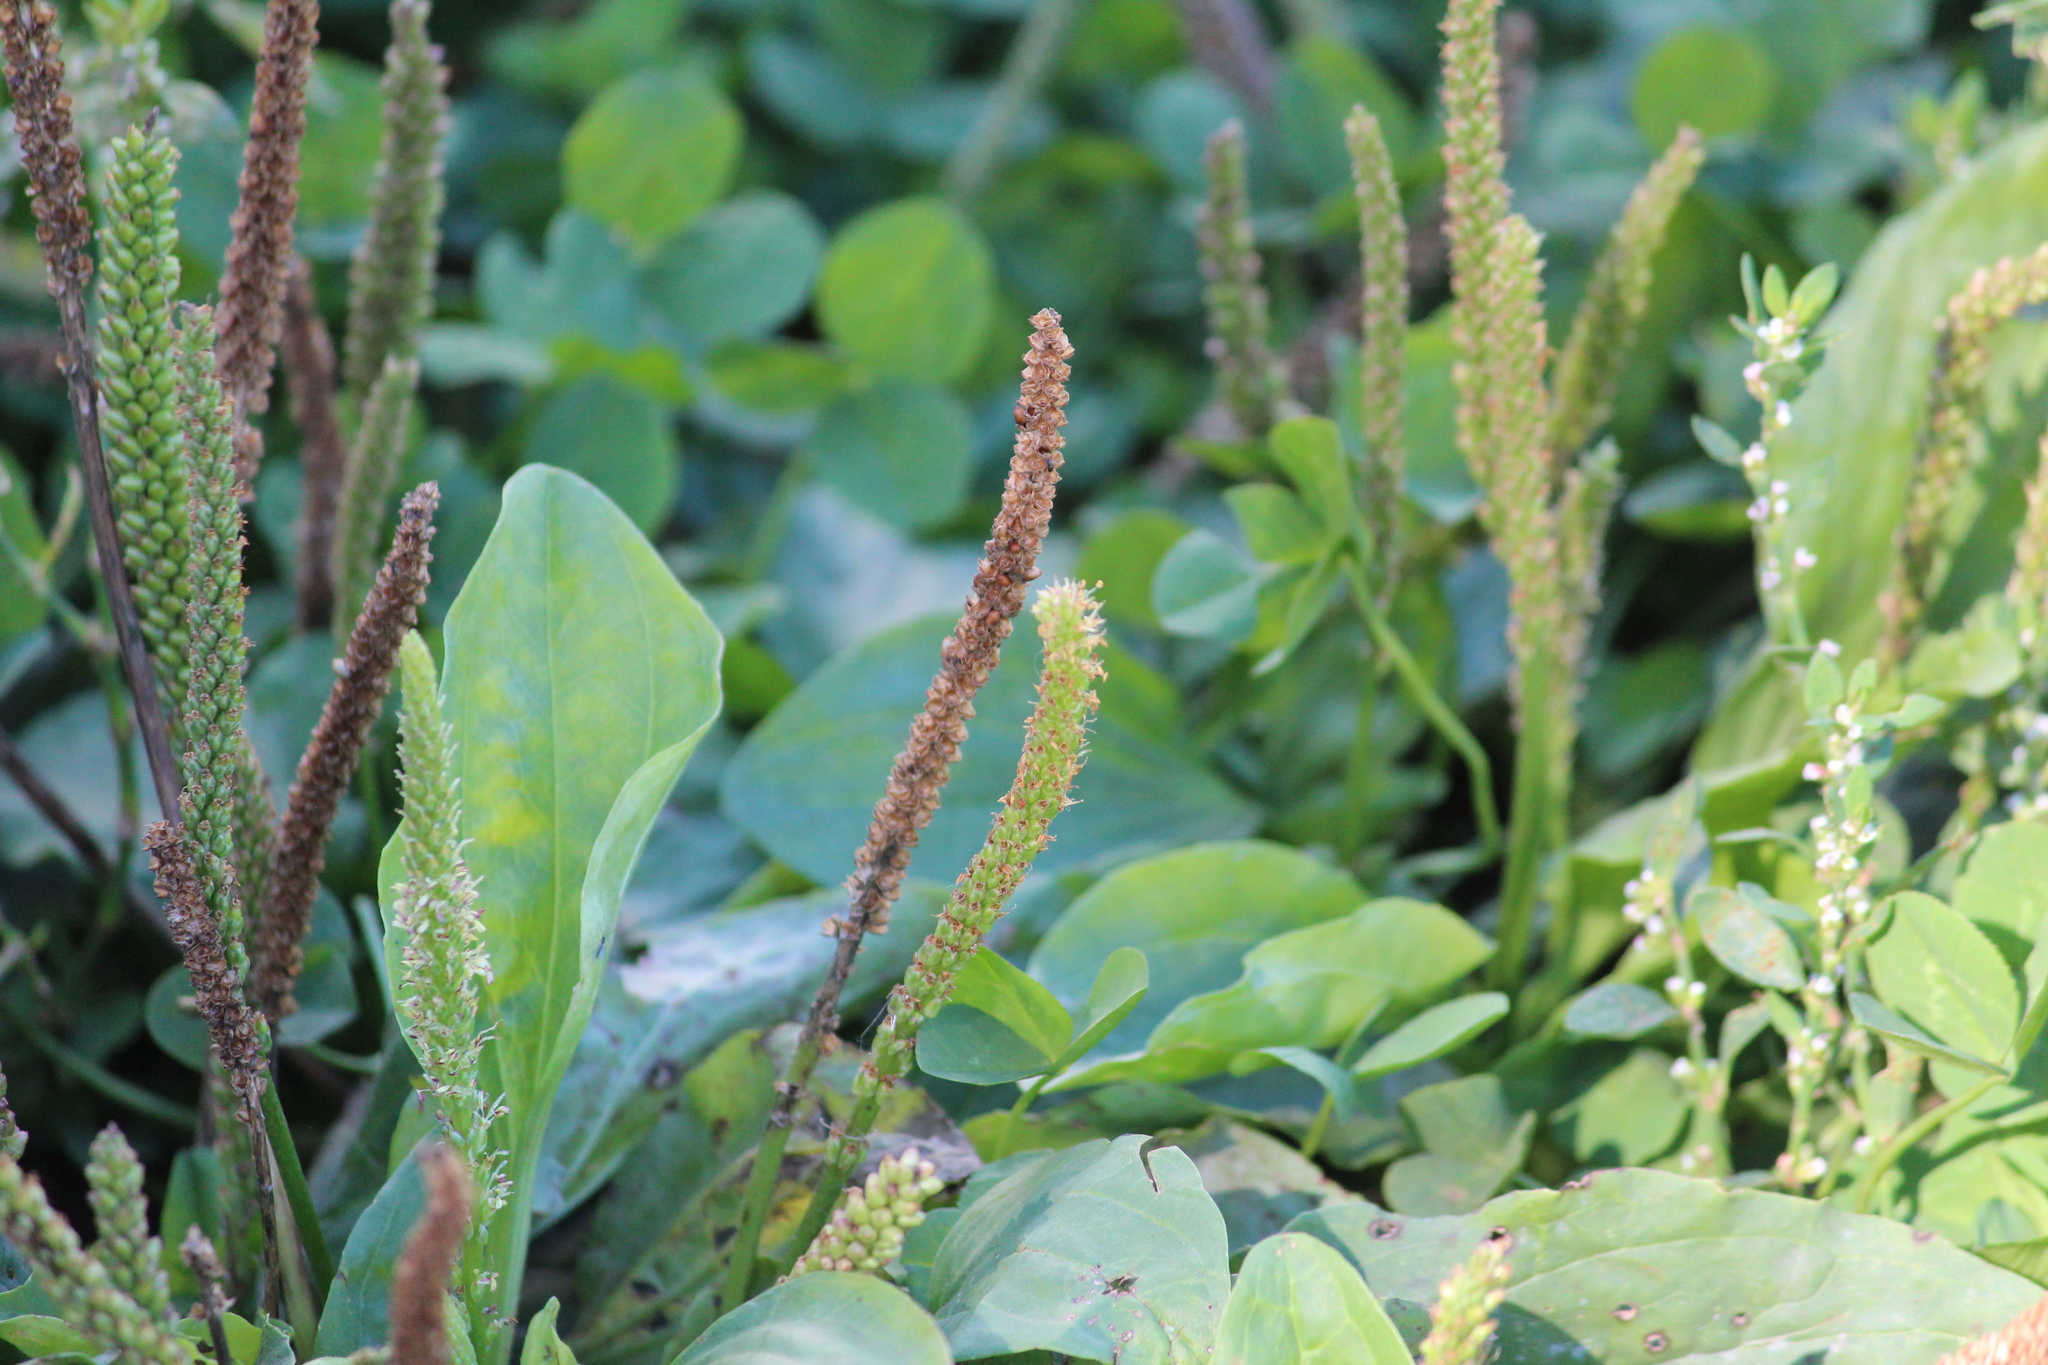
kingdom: Plantae
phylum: Tracheophyta
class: Magnoliopsida
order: Lamiales
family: Plantaginaceae
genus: Plantago
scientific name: Plantago major
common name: Common plantain
